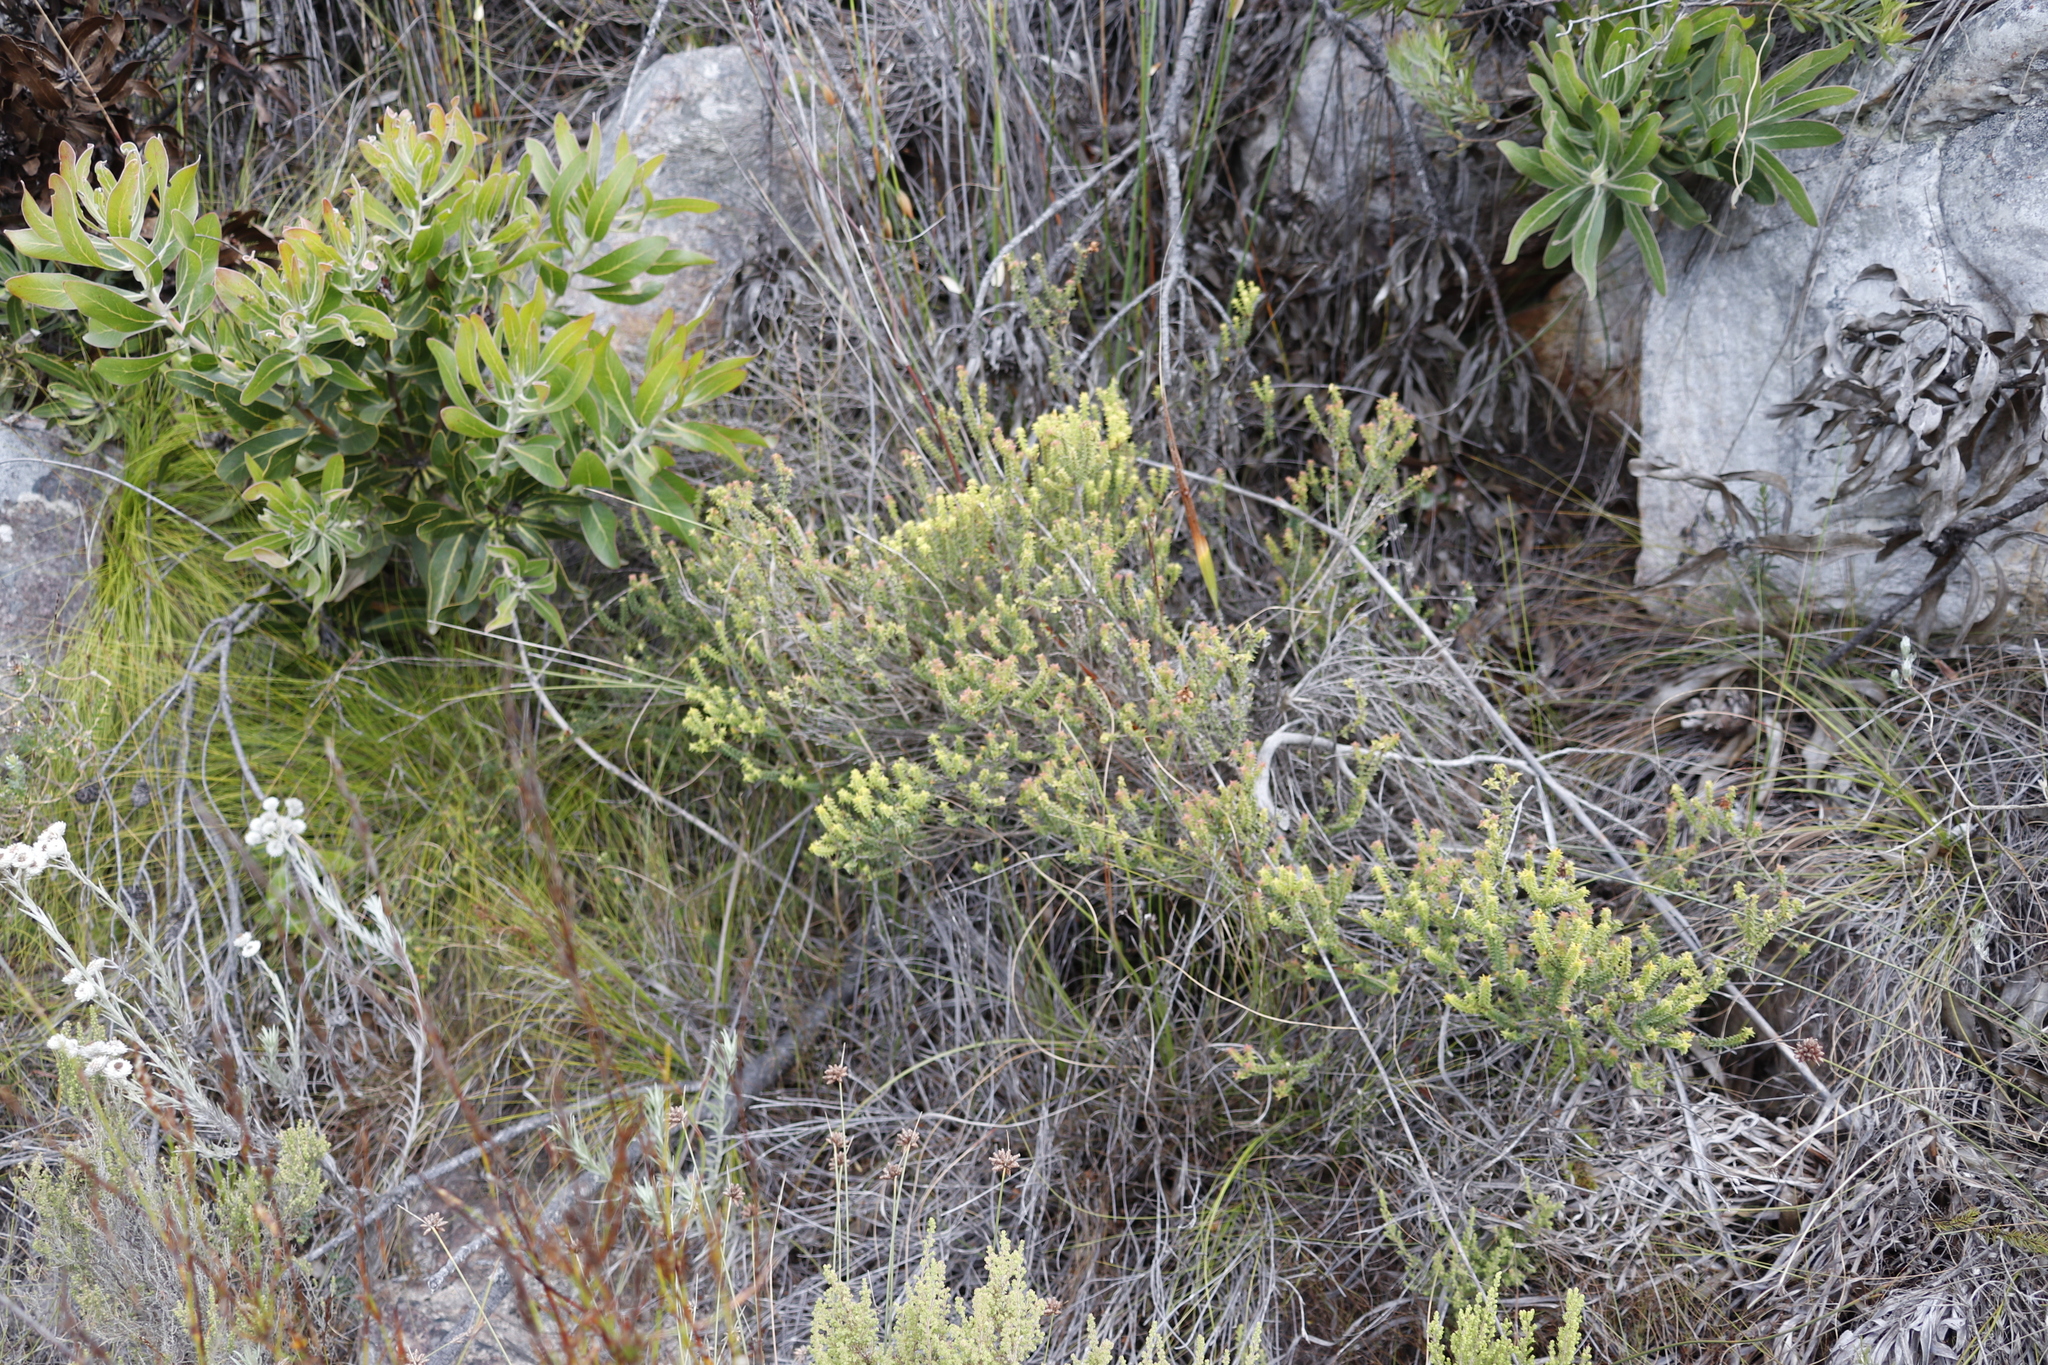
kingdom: Plantae
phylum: Tracheophyta
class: Magnoliopsida
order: Myrtales
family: Penaeaceae
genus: Penaea
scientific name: Penaea mucronata
